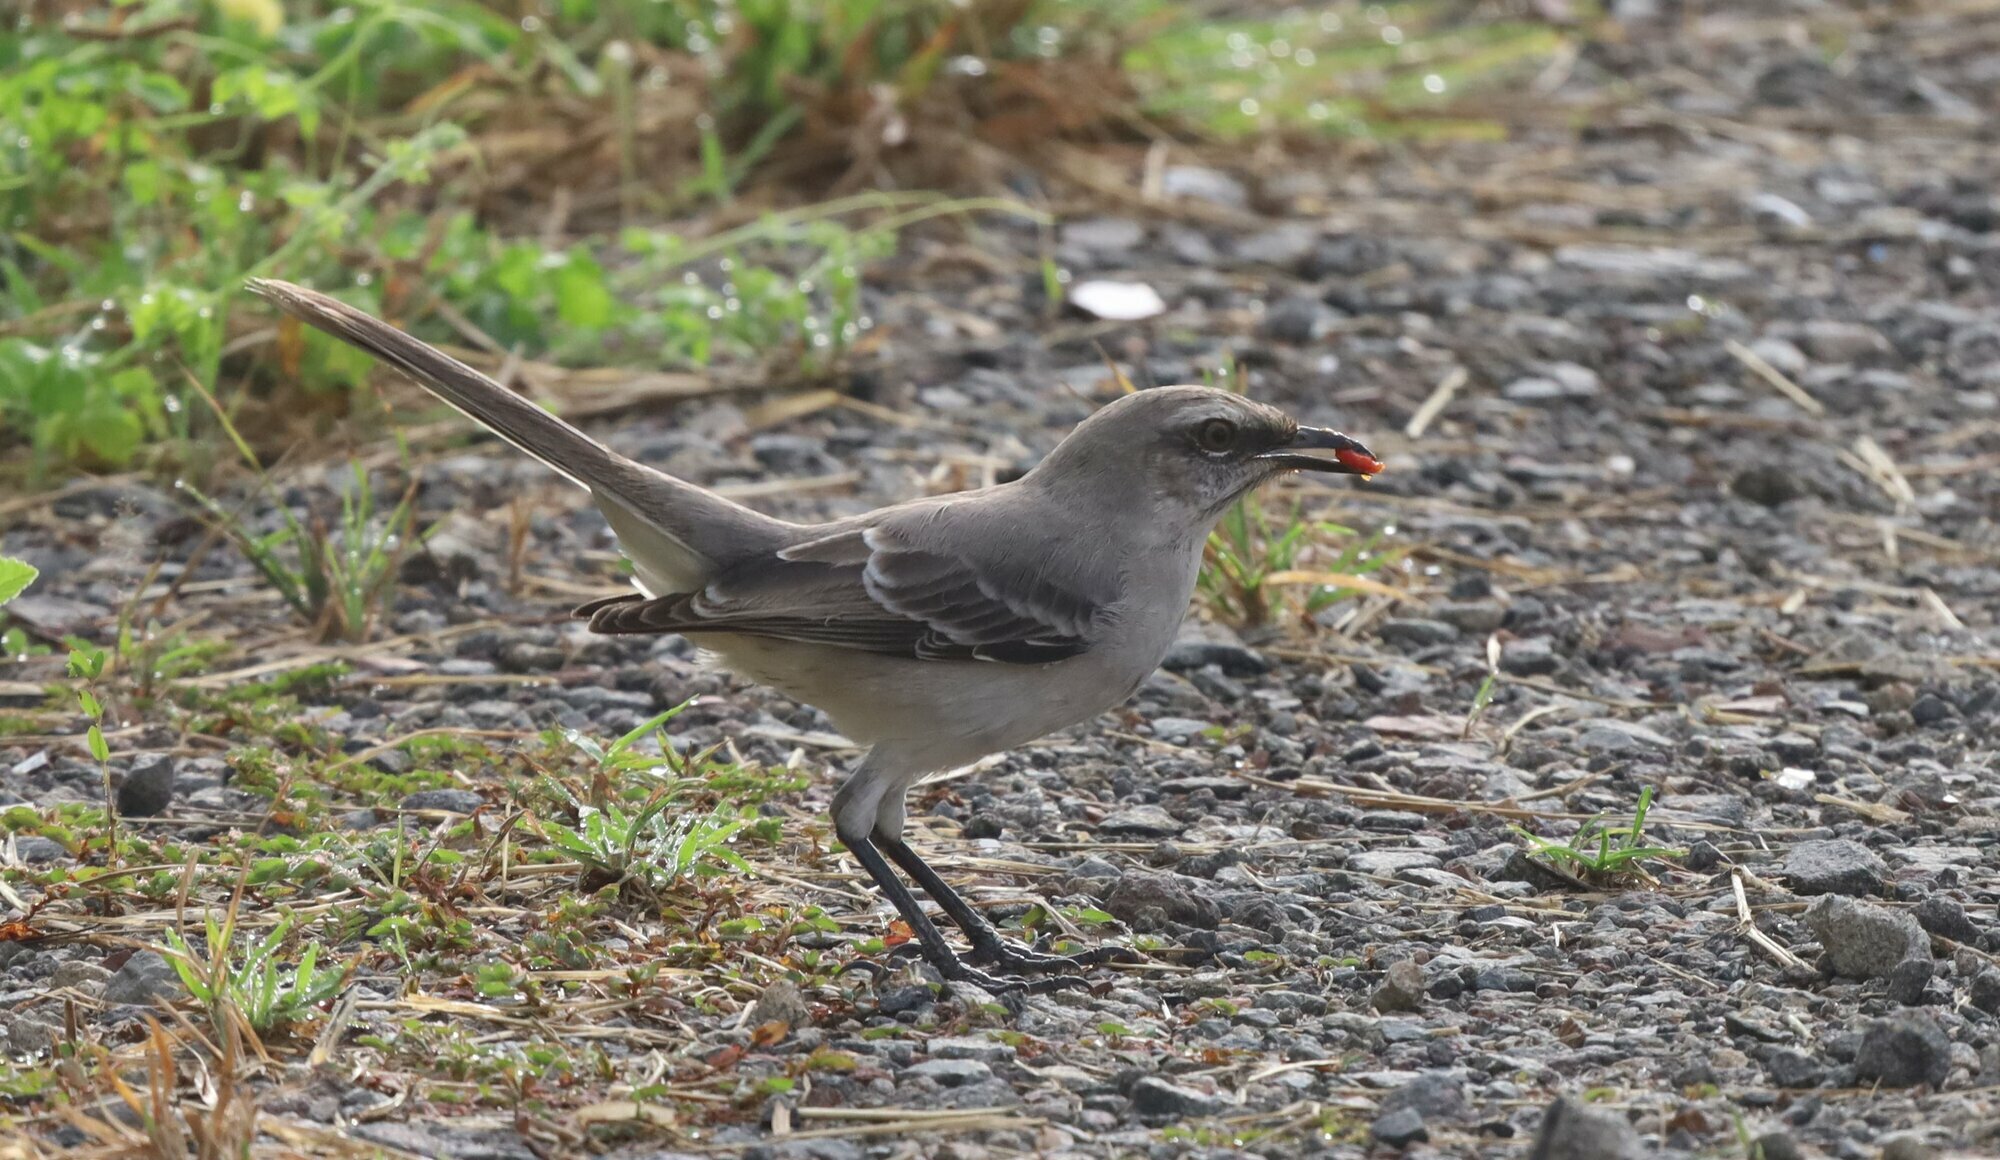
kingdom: Animalia
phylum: Chordata
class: Aves
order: Passeriformes
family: Mimidae
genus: Mimus
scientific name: Mimus gilvus
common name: Tropical mockingbird
